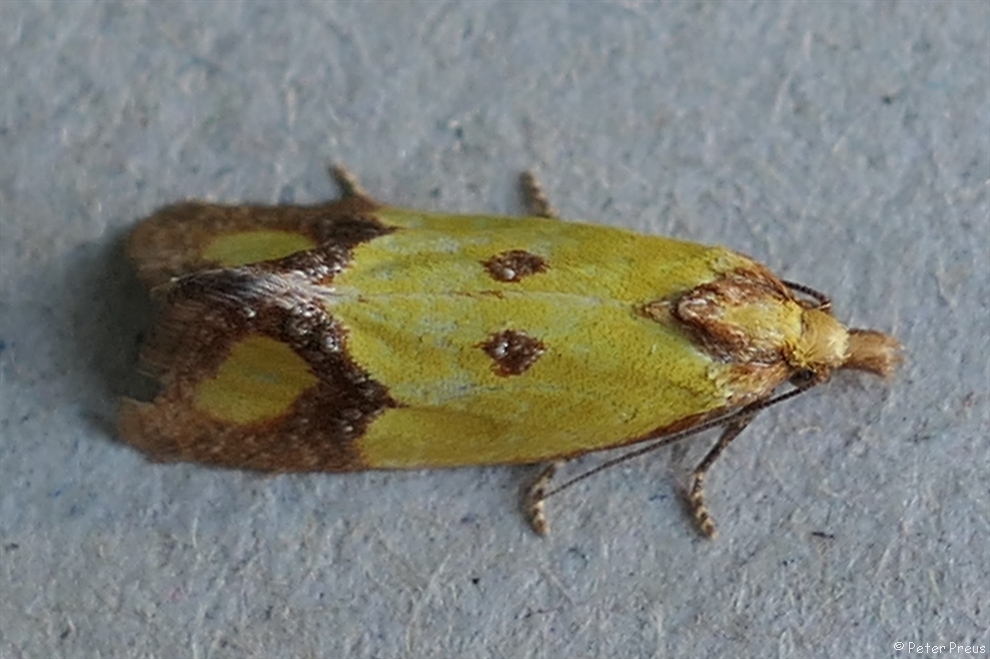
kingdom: Animalia
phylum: Arthropoda
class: Insecta
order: Lepidoptera
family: Tortricidae
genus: Agapeta
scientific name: Agapeta zoegana
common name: Sulfur knapweed root moth
